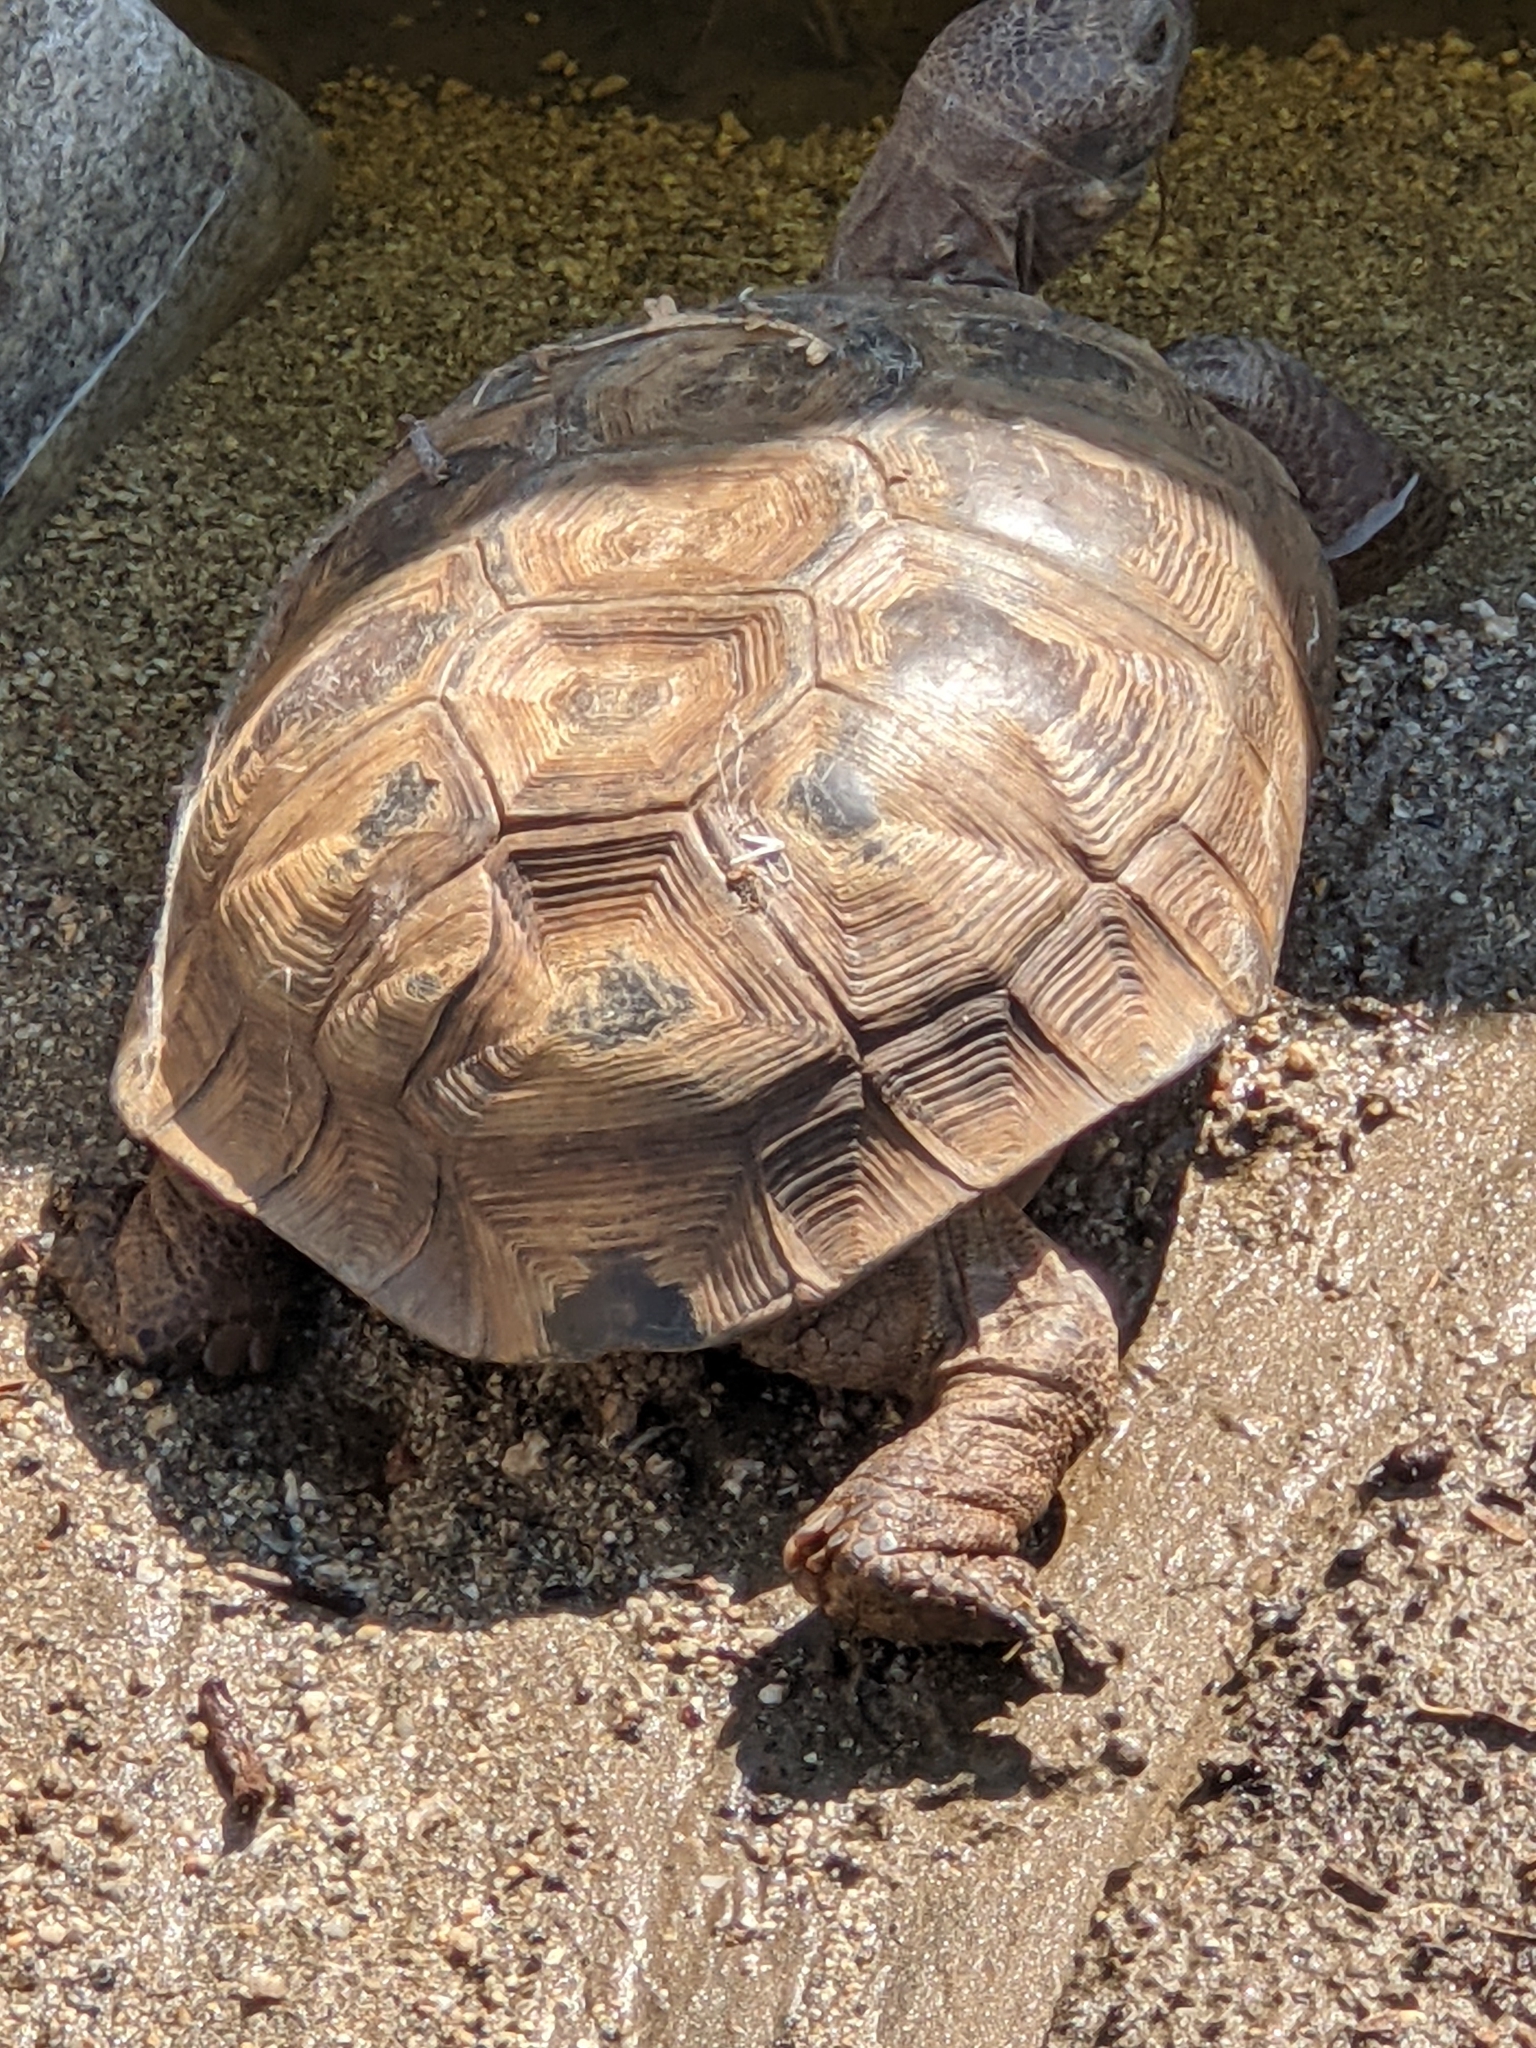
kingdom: Animalia
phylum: Chordata
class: Testudines
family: Testudinidae
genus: Gopherus
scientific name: Gopherus morafkai
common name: Sonoran desert tortoise
